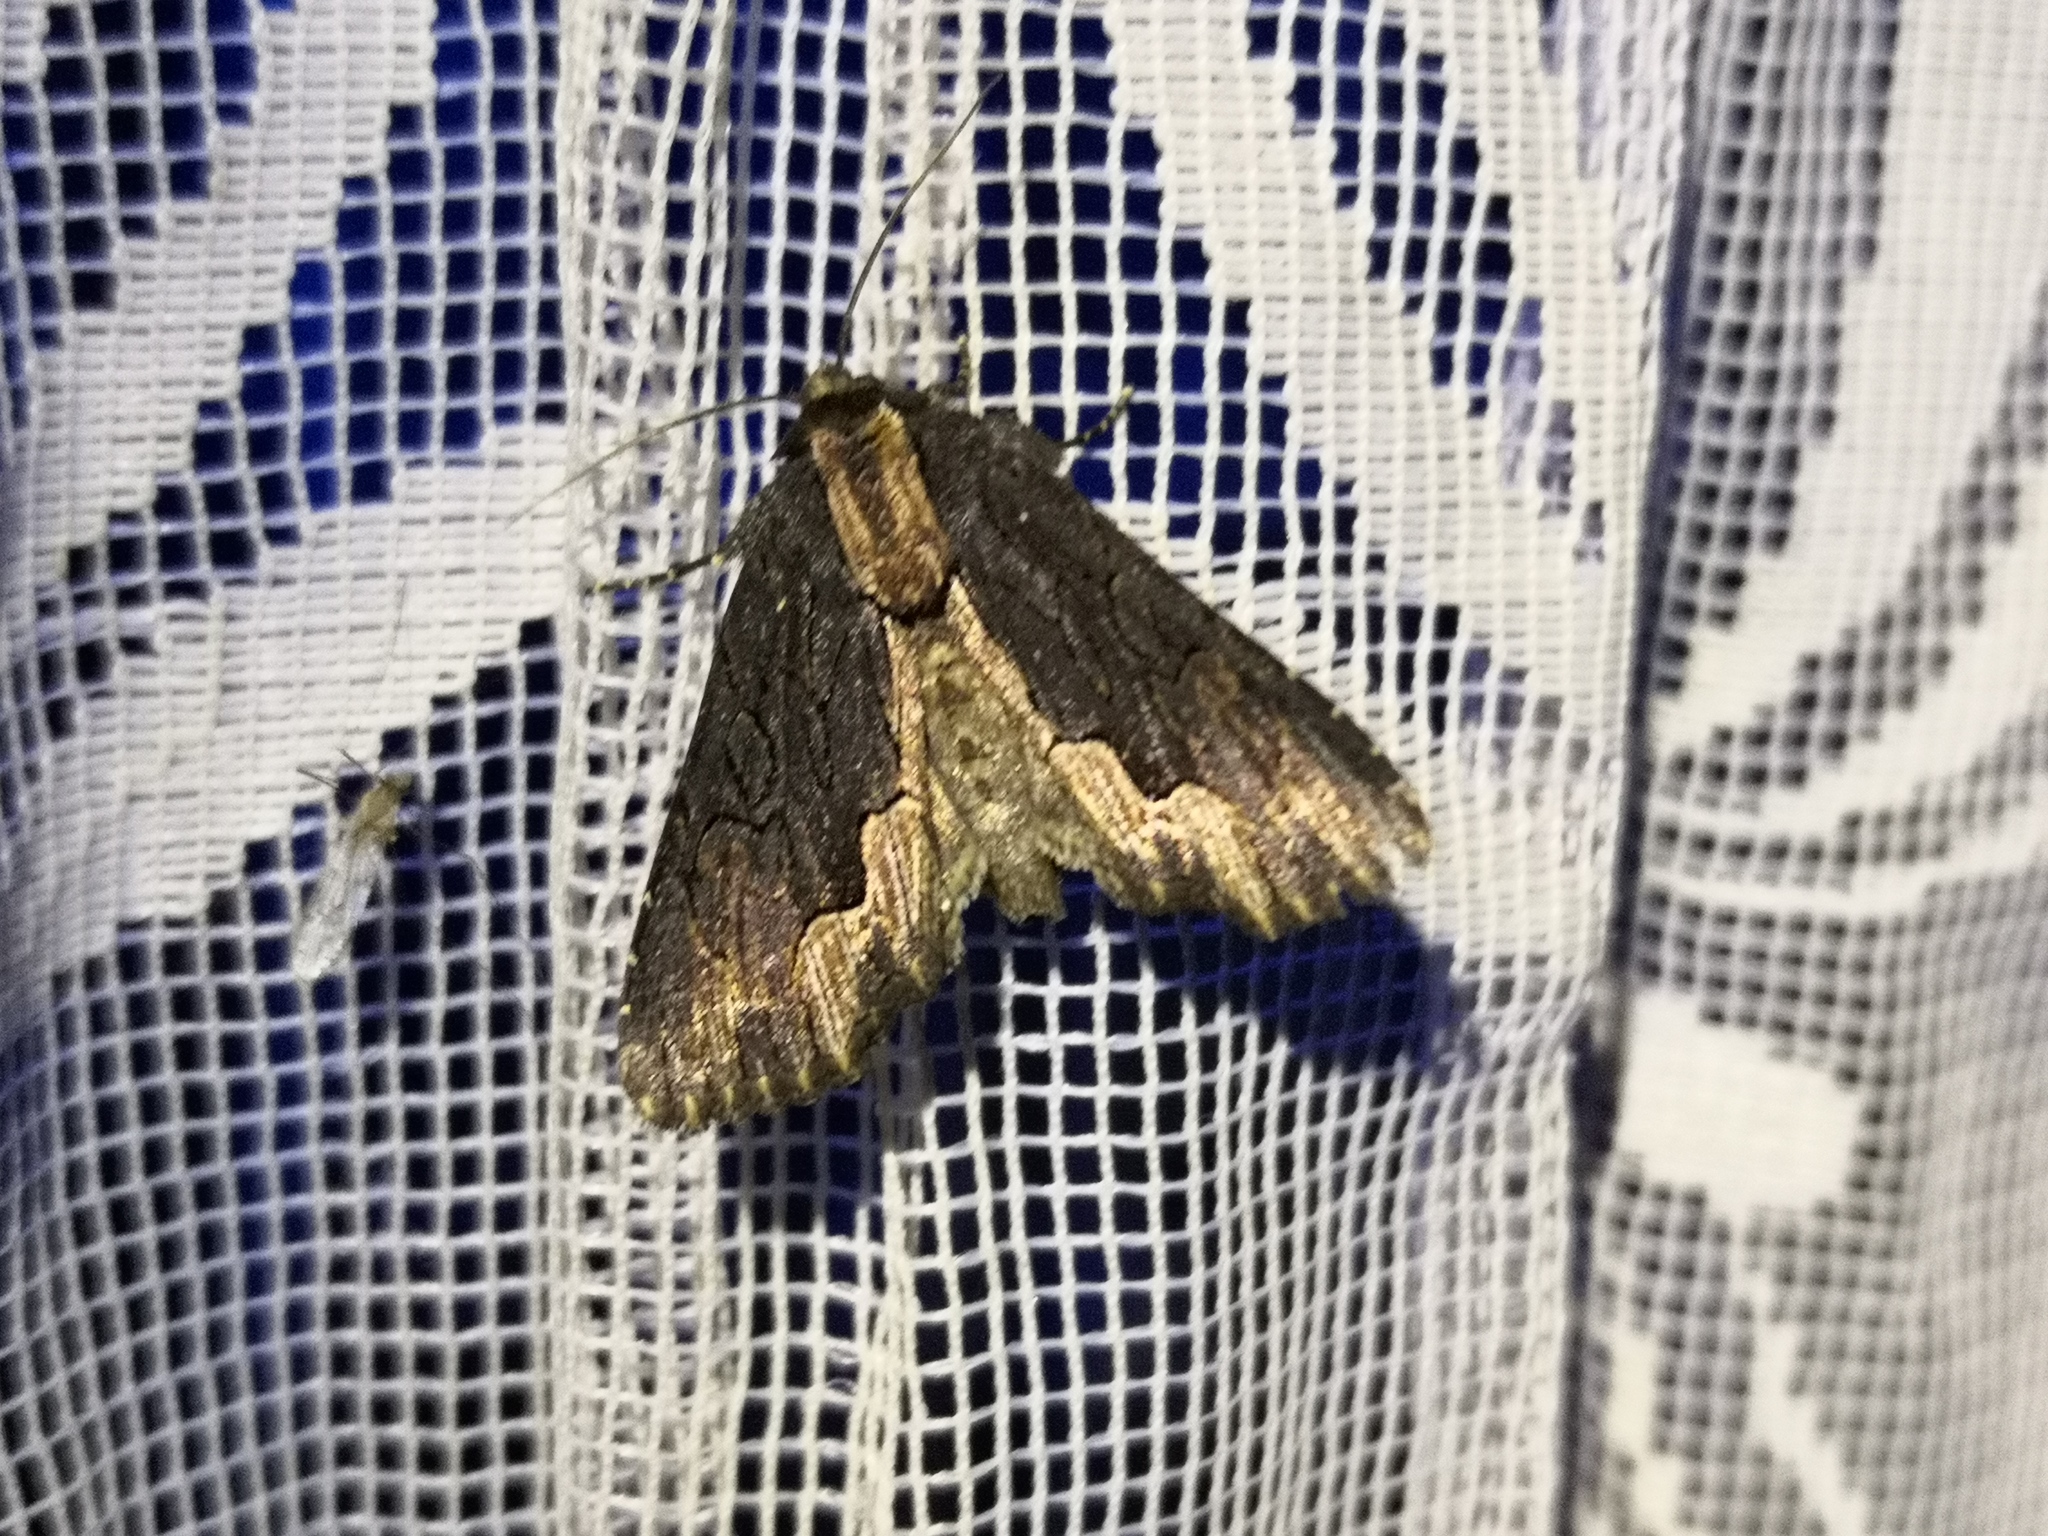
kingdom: Animalia
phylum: Arthropoda
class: Insecta
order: Lepidoptera
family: Noctuidae
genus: Dypterygia
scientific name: Dypterygia scabriuscula
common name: Bird's wing
